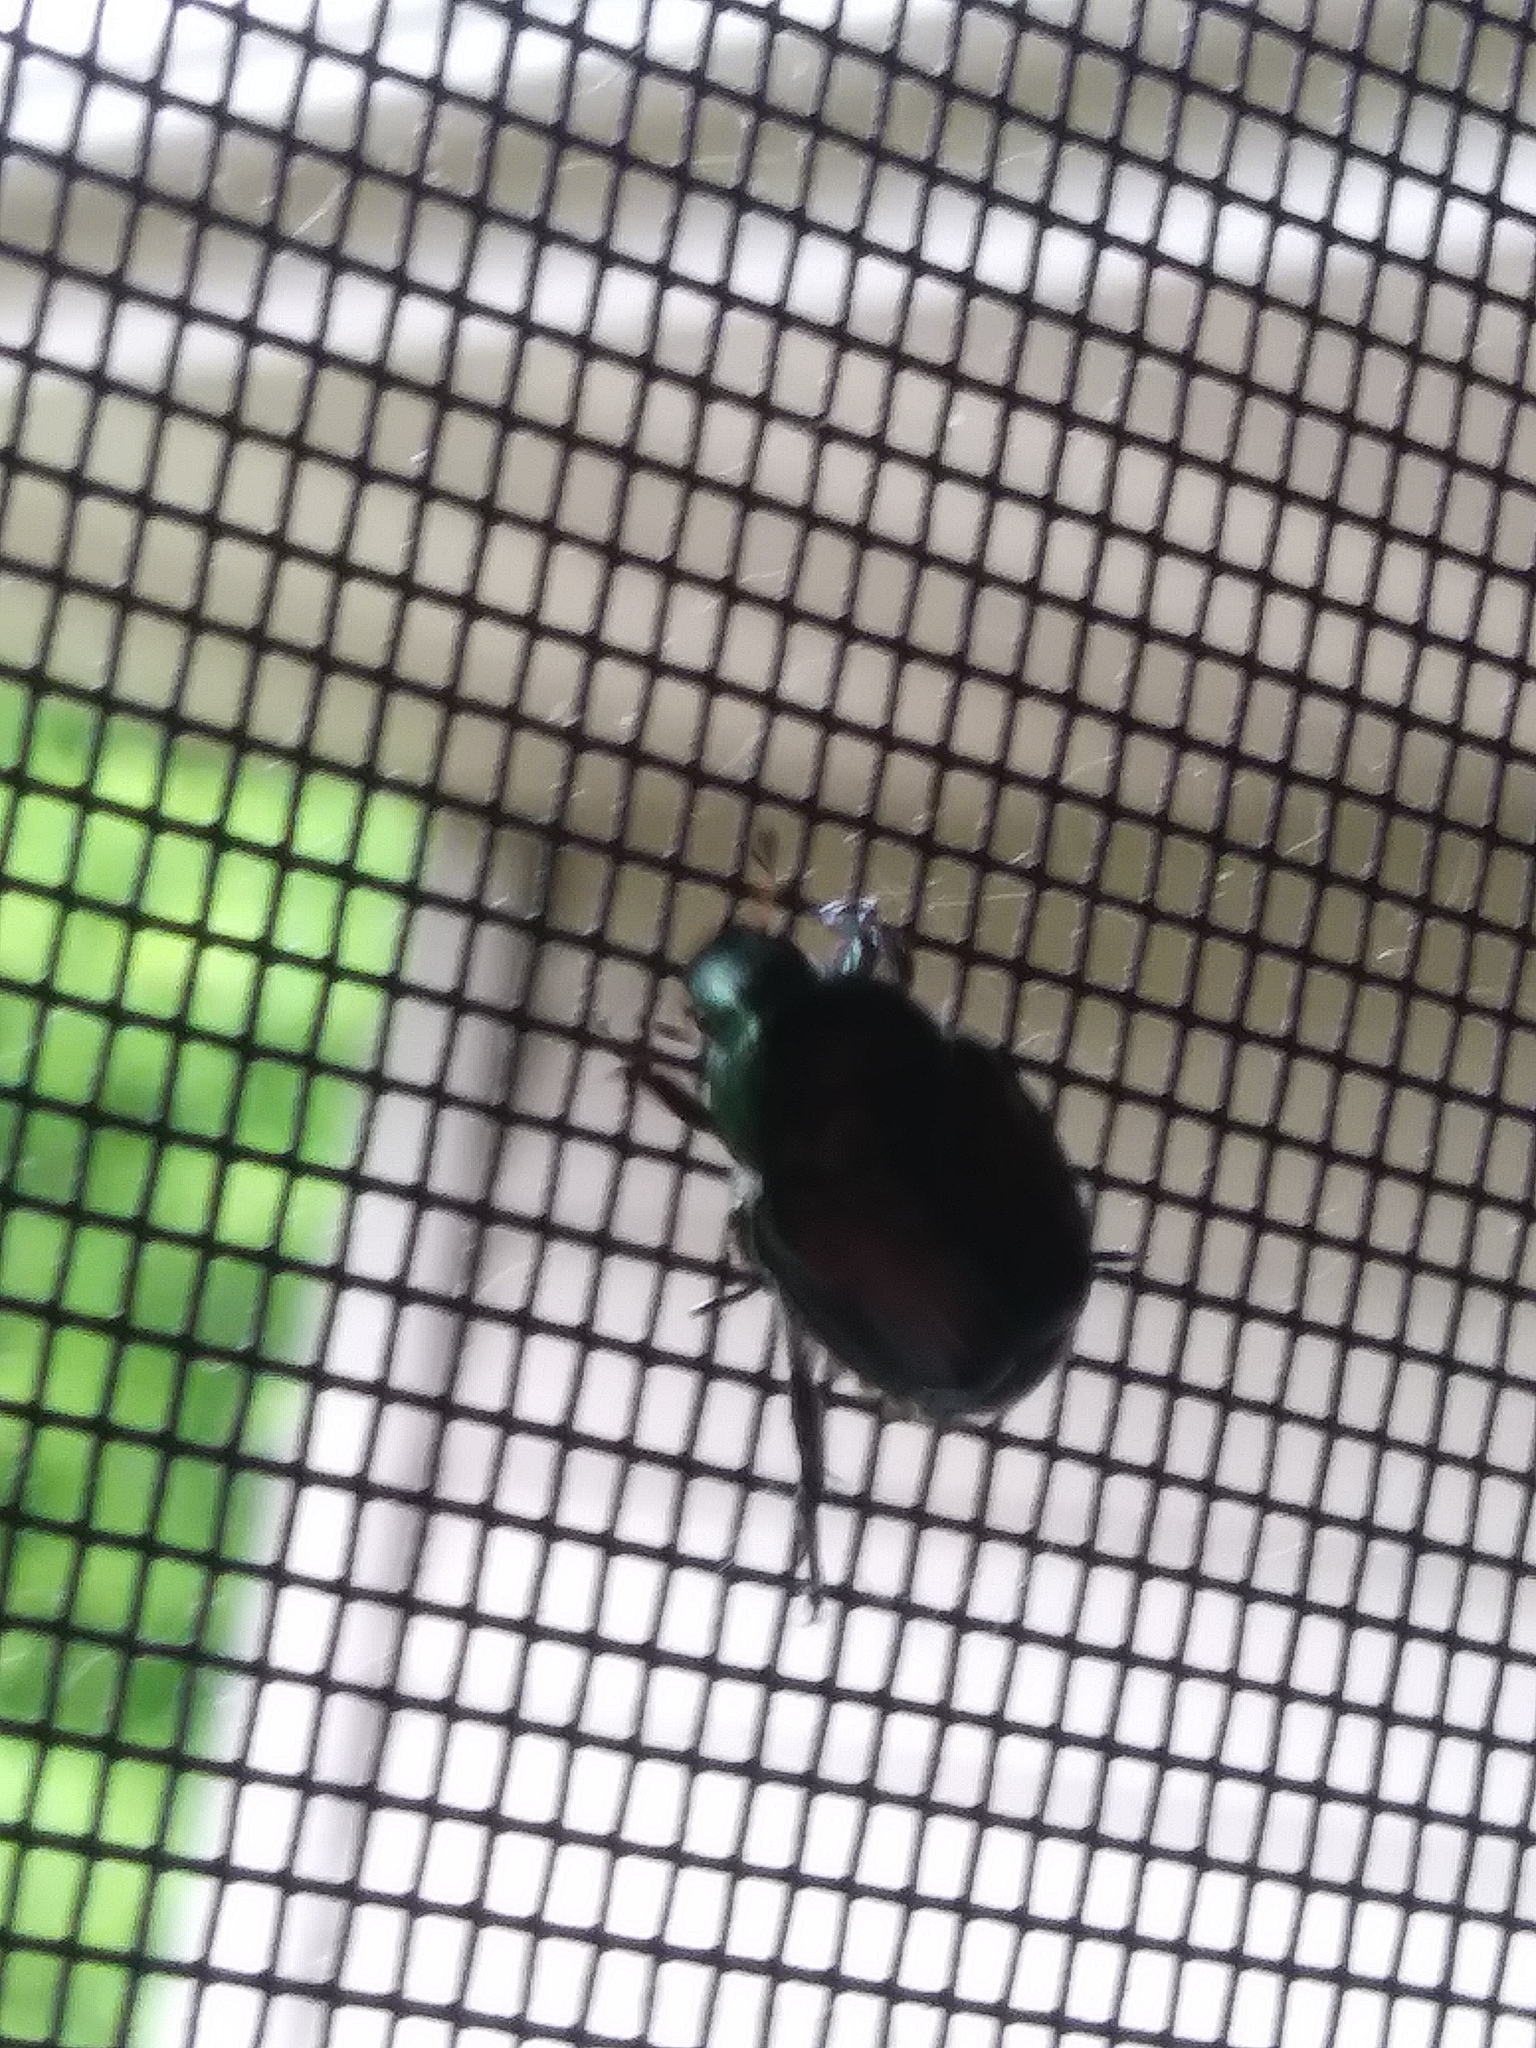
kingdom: Animalia
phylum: Arthropoda
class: Insecta
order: Coleoptera
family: Scarabaeidae
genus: Popillia
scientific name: Popillia japonica
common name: Japanese beetle
